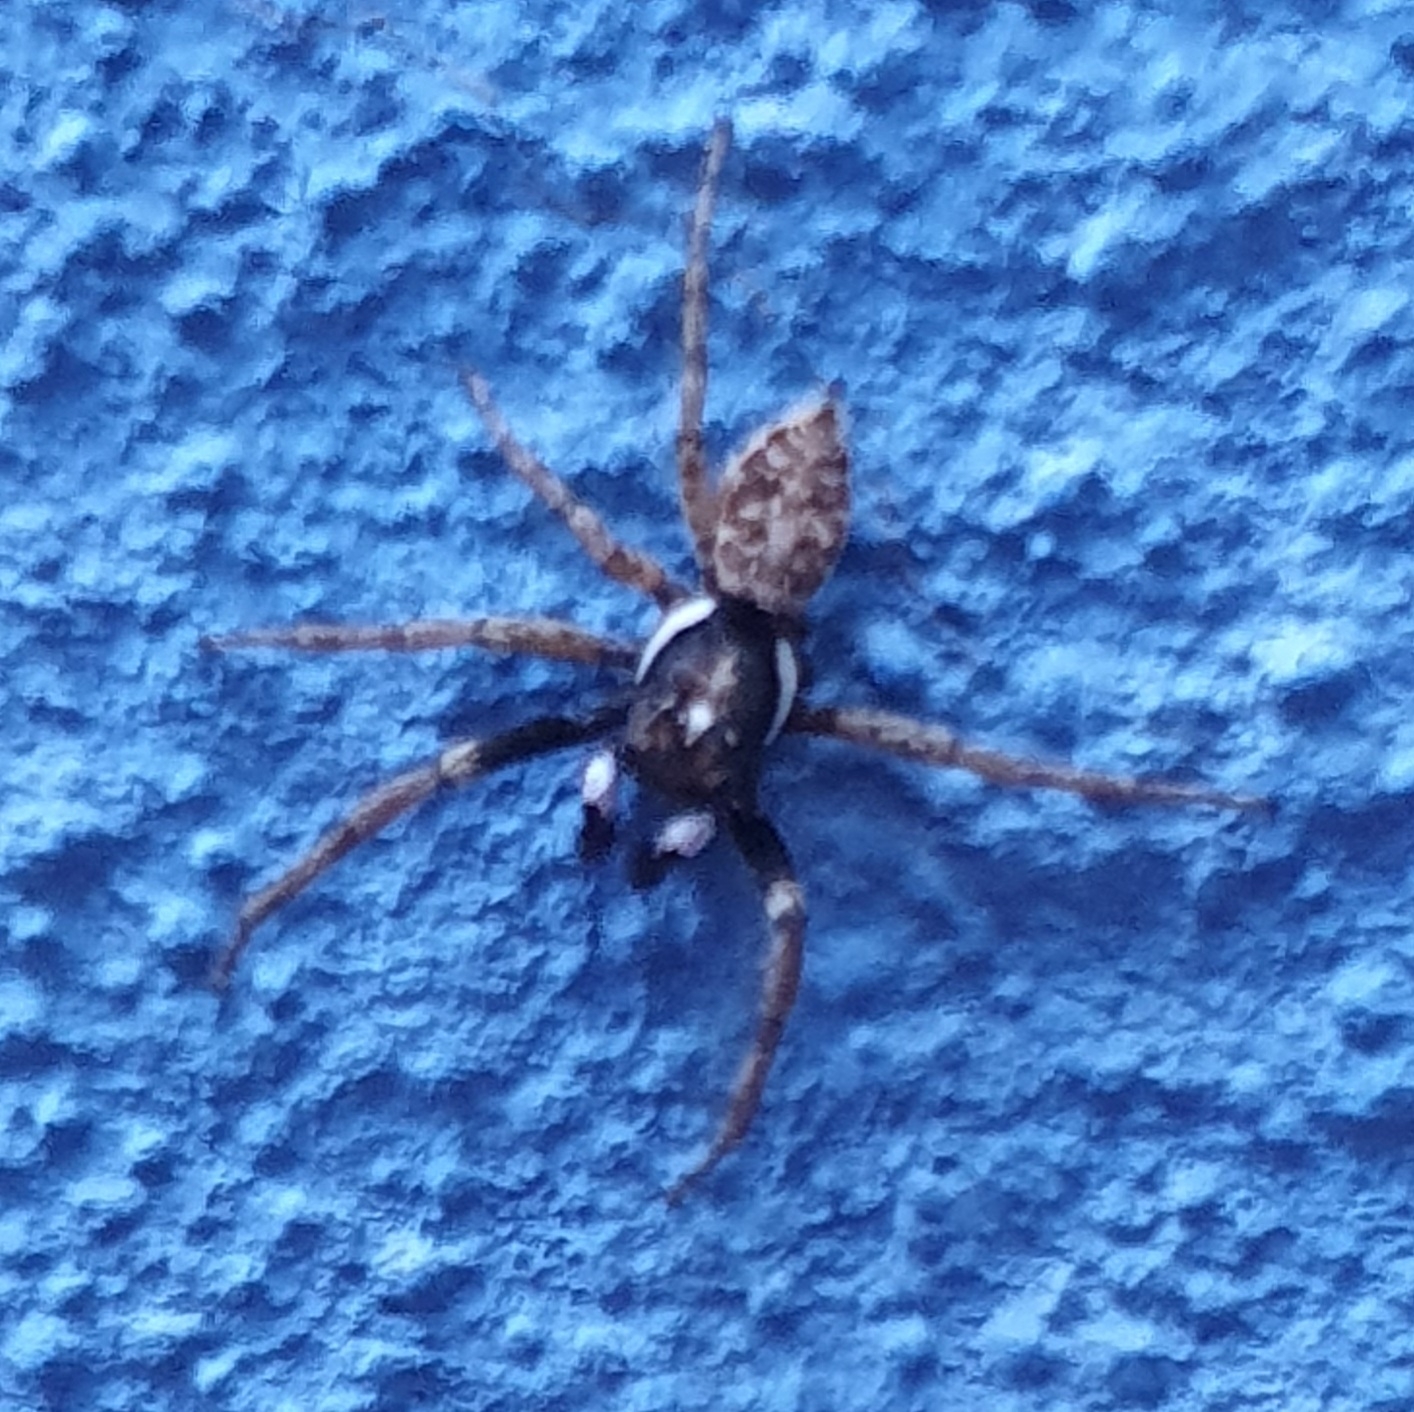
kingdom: Animalia
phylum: Arthropoda
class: Arachnida
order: Araneae
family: Salticidae
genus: Menemerus
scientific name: Menemerus semilimbatus
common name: Jumping spider
